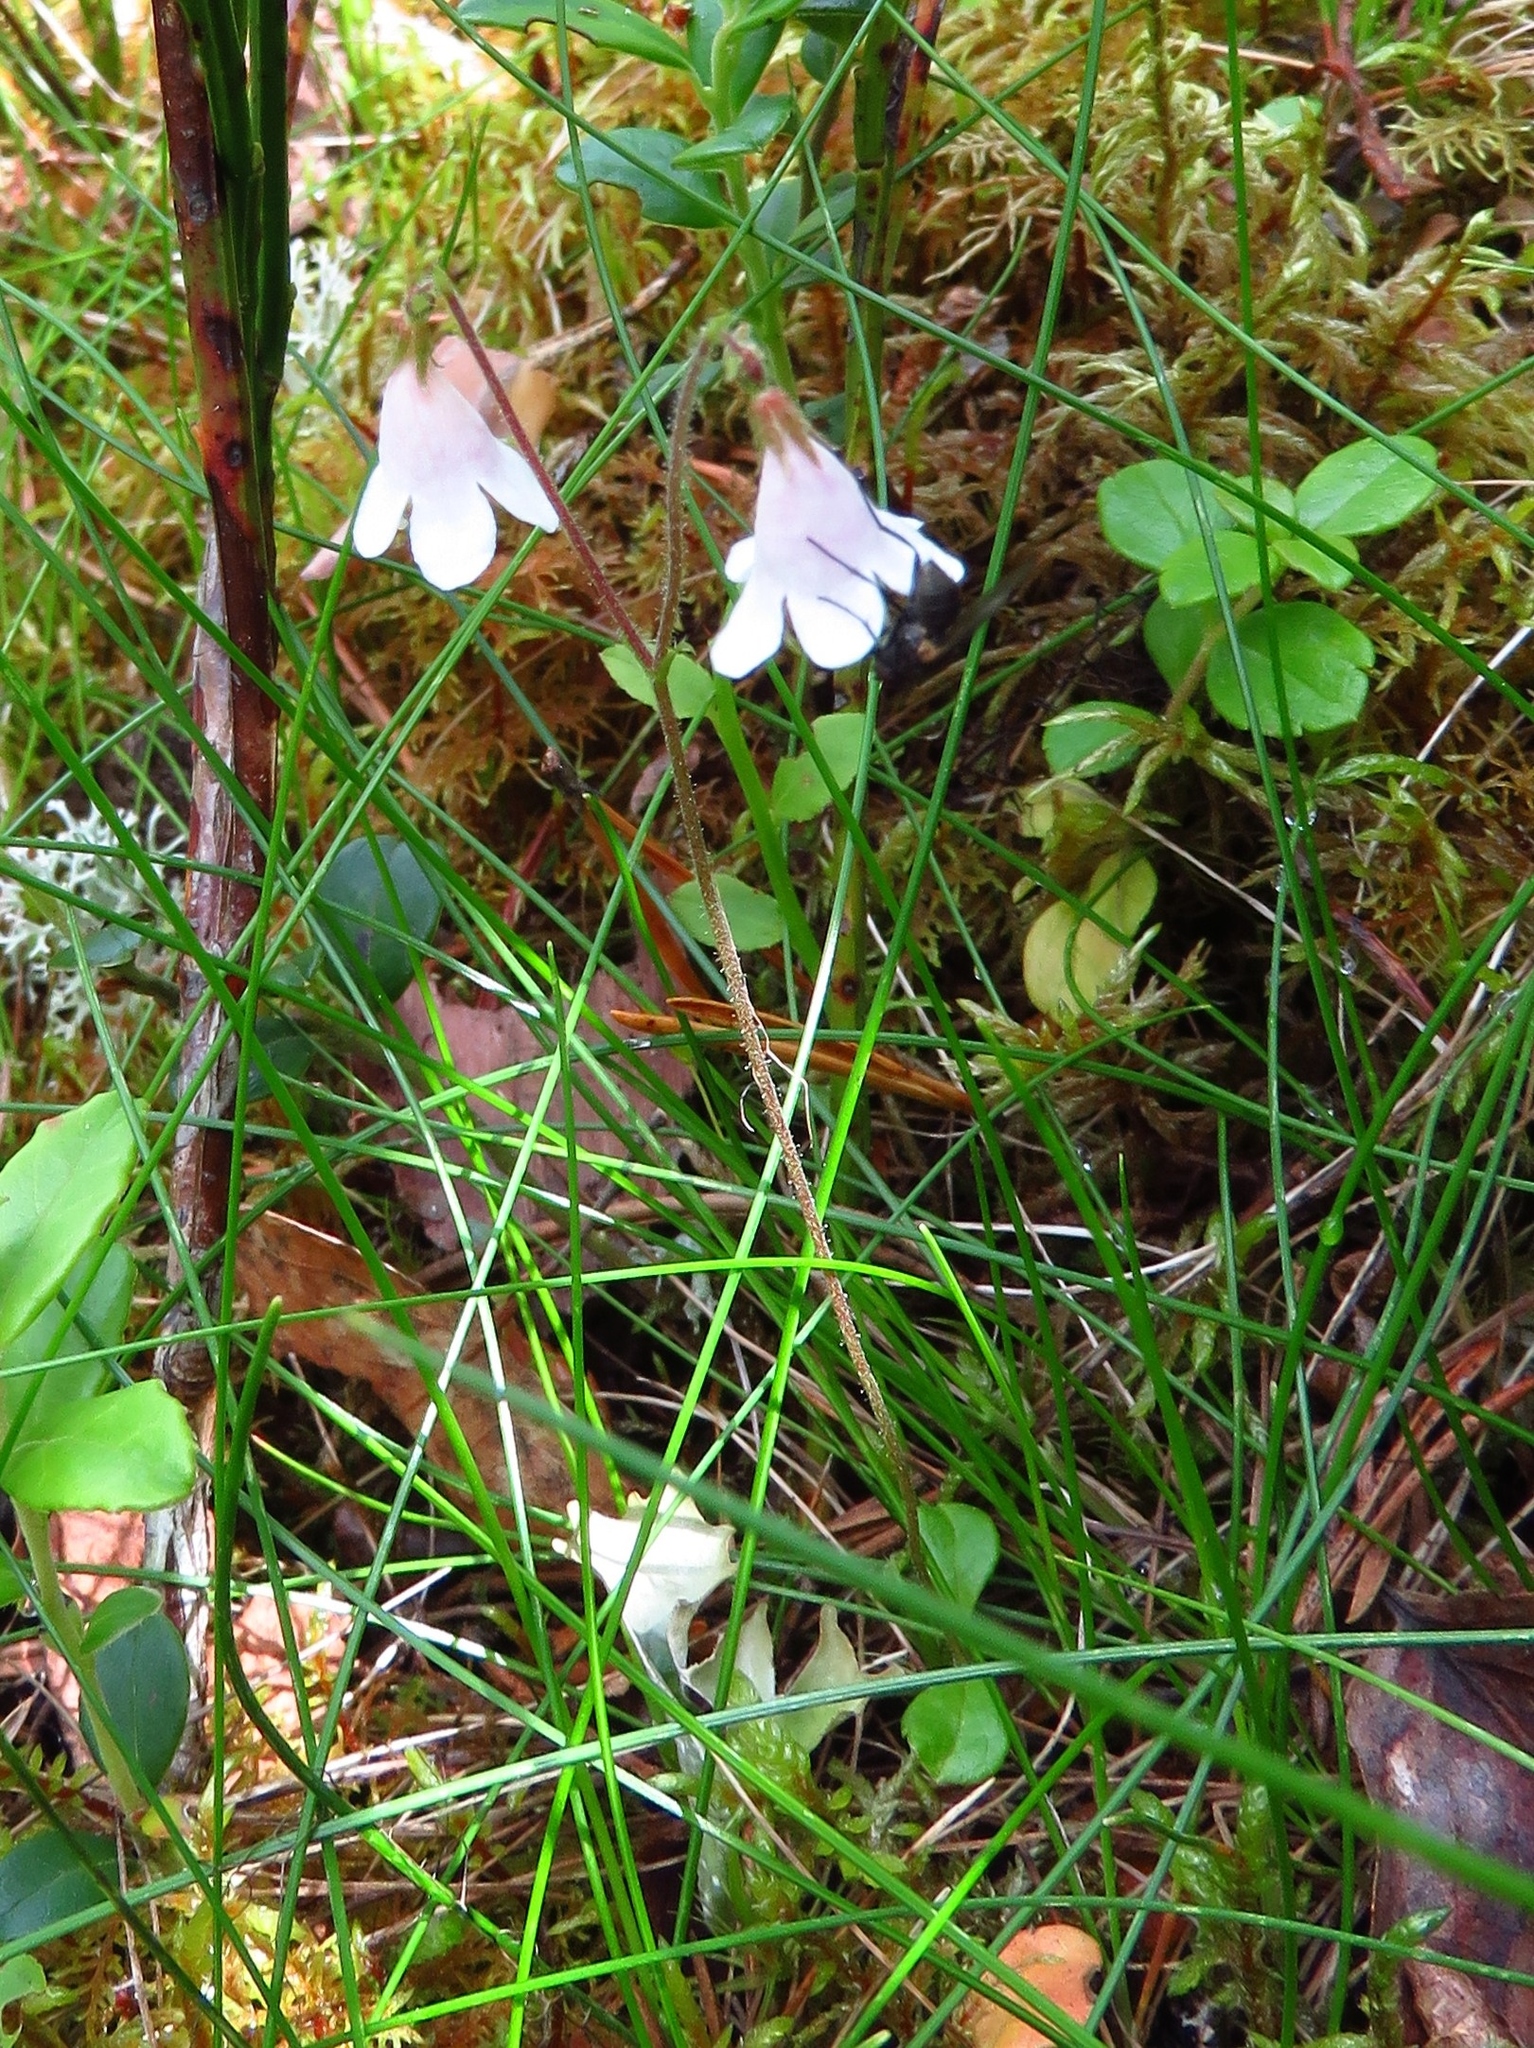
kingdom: Plantae
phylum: Tracheophyta
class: Magnoliopsida
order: Dipsacales
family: Caprifoliaceae
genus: Linnaea
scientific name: Linnaea borealis
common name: Twinflower
